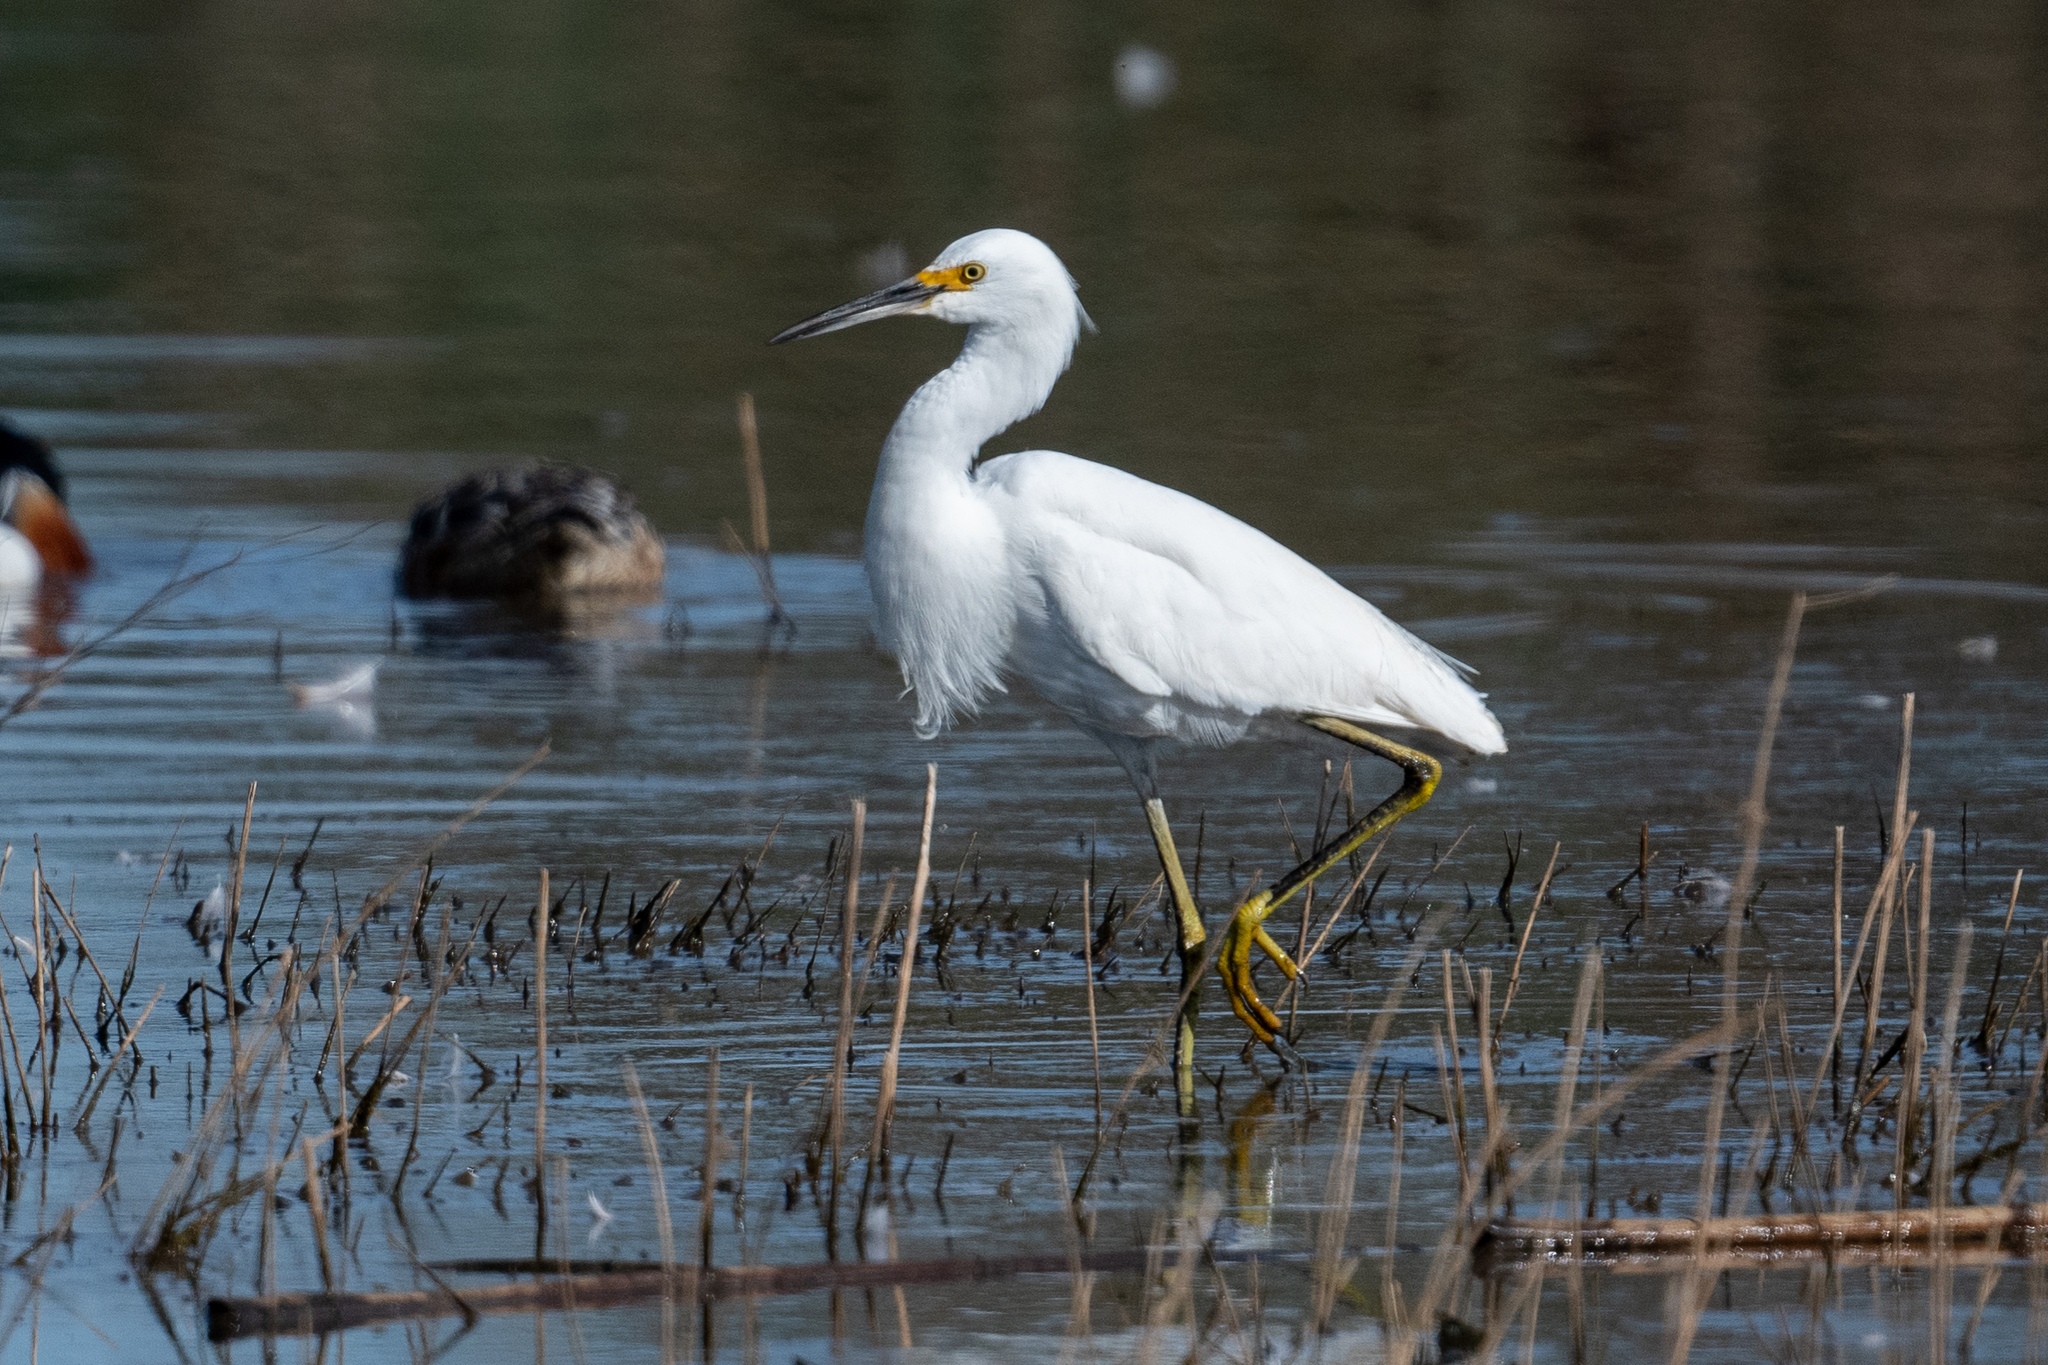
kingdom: Animalia
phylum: Chordata
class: Aves
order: Pelecaniformes
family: Ardeidae
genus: Egretta
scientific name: Egretta thula
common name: Snowy egret
